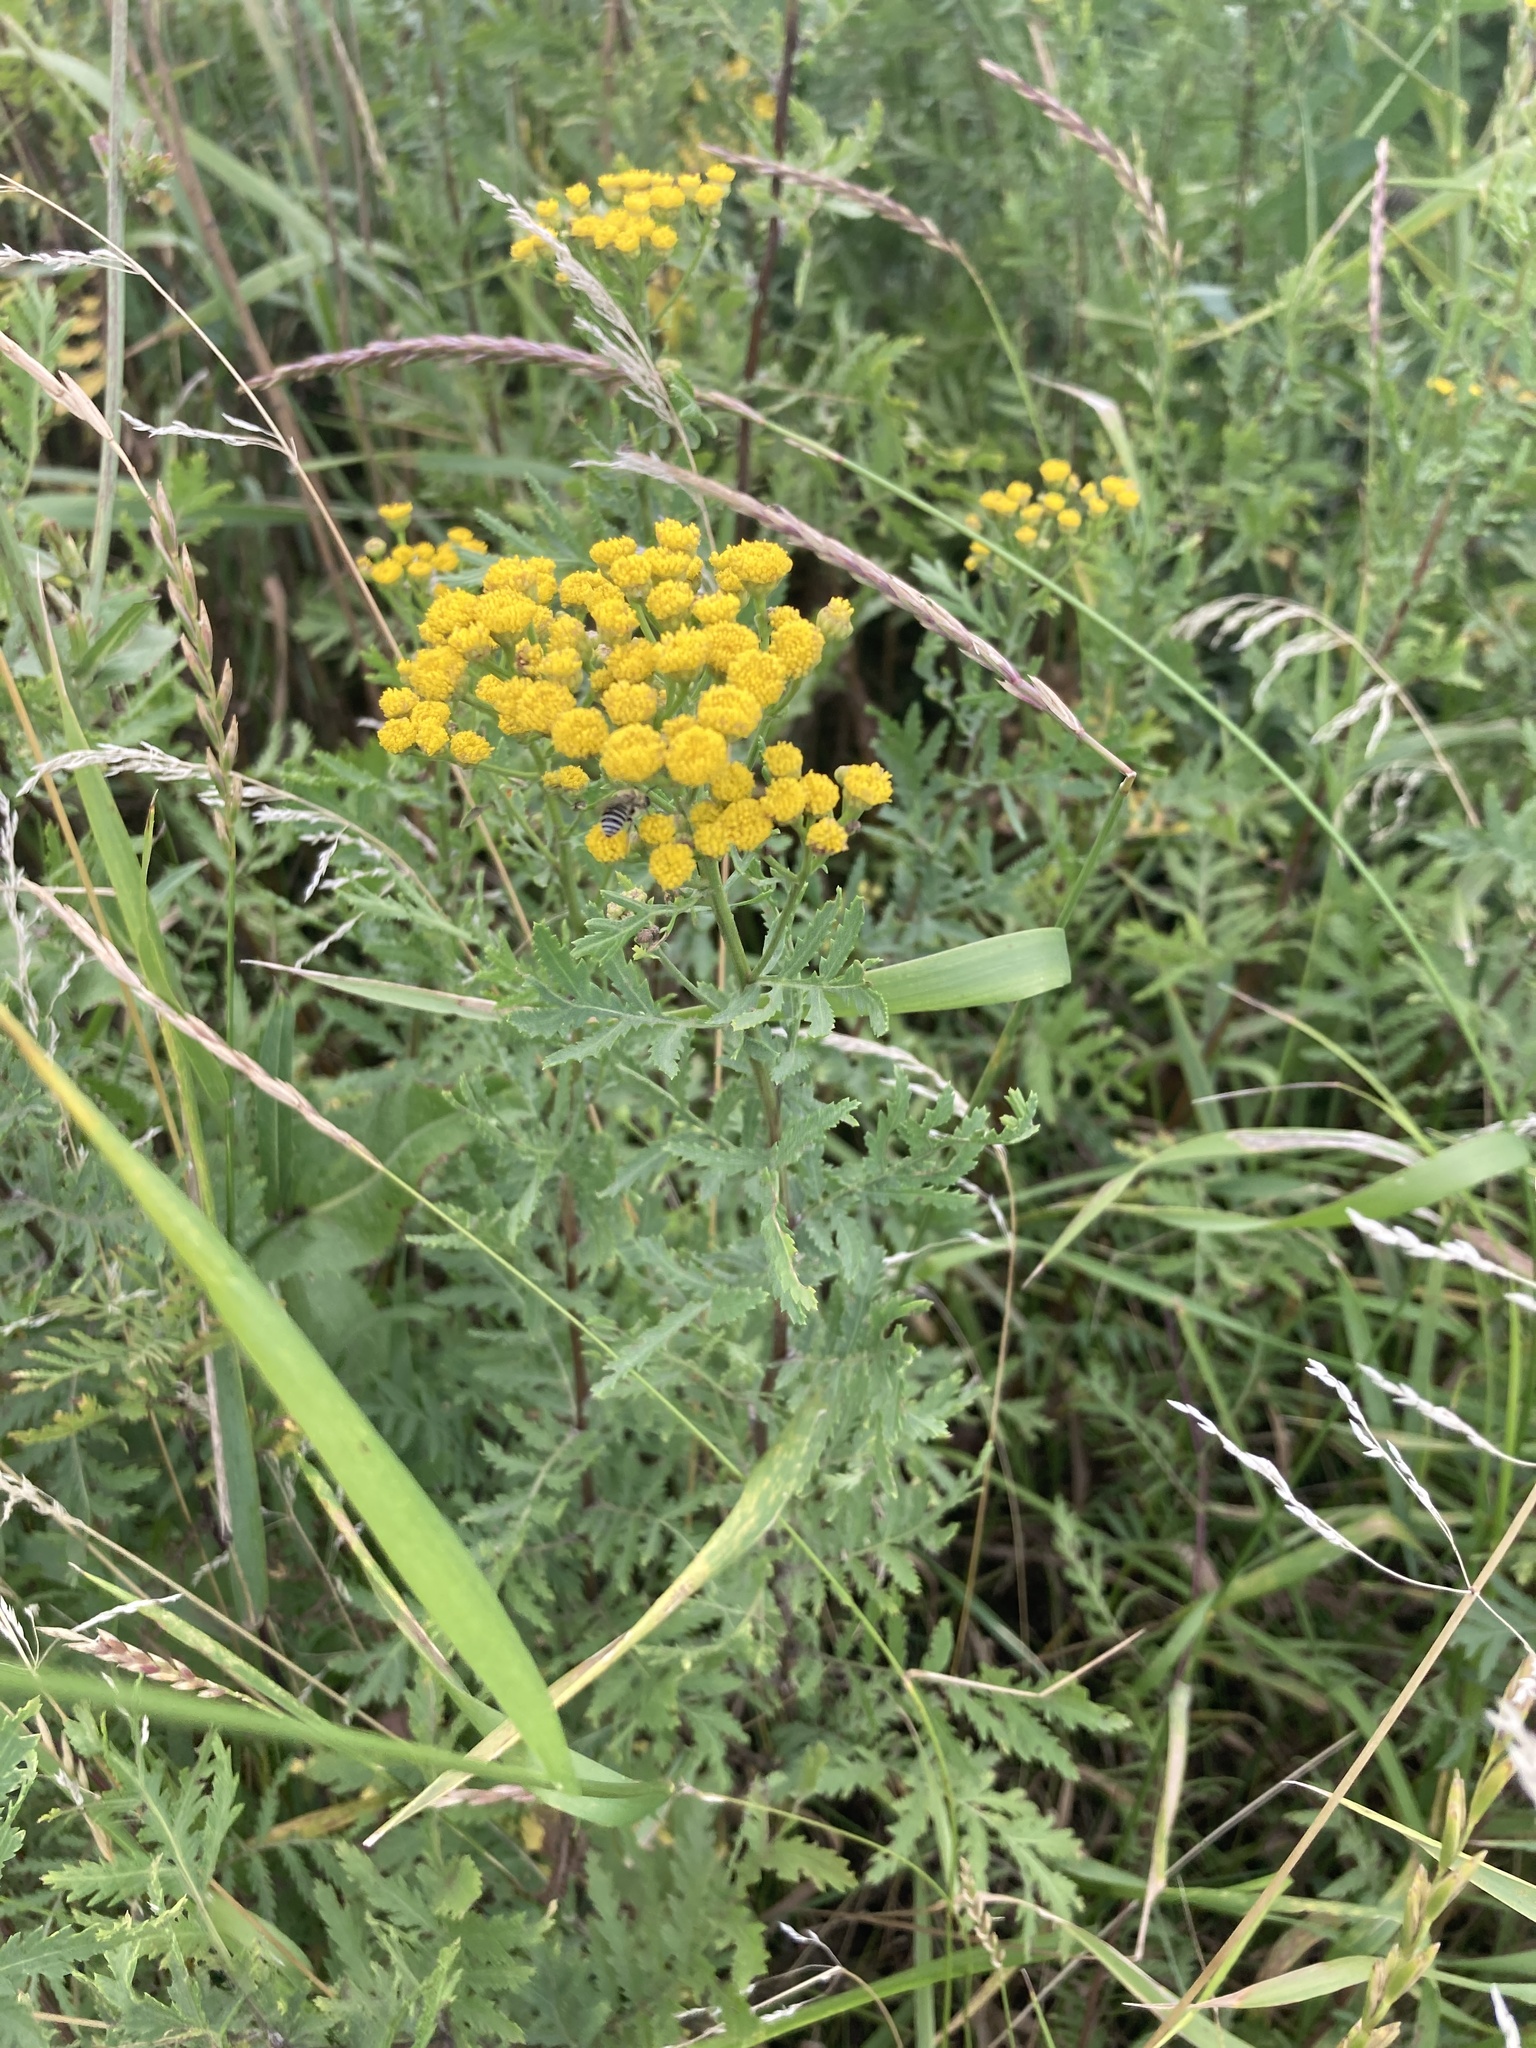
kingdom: Plantae
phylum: Tracheophyta
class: Magnoliopsida
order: Asterales
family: Asteraceae
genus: Tanacetum
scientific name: Tanacetum vulgare
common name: Common tansy
